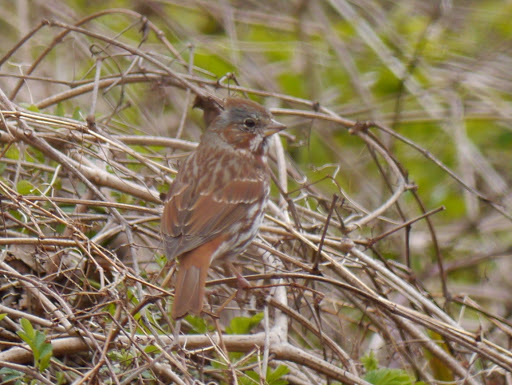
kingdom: Animalia
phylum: Chordata
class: Aves
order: Passeriformes
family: Passerellidae
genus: Passerella
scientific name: Passerella iliaca
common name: Fox sparrow
